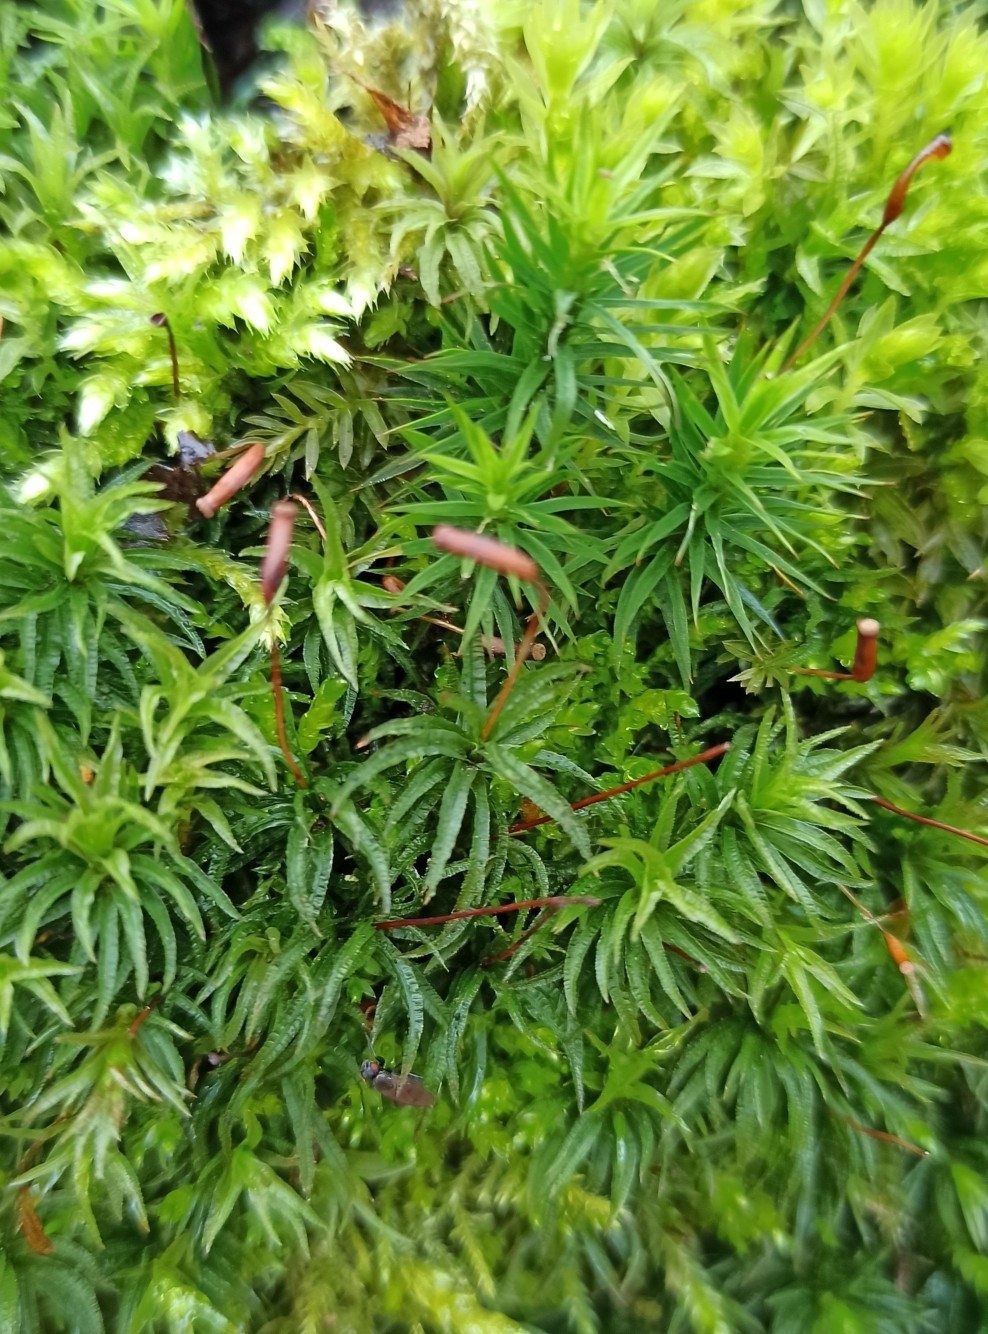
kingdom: Plantae
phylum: Bryophyta
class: Polytrichopsida
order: Polytrichales
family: Polytrichaceae
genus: Atrichum
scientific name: Atrichum undulatum
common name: Common smoothcap
